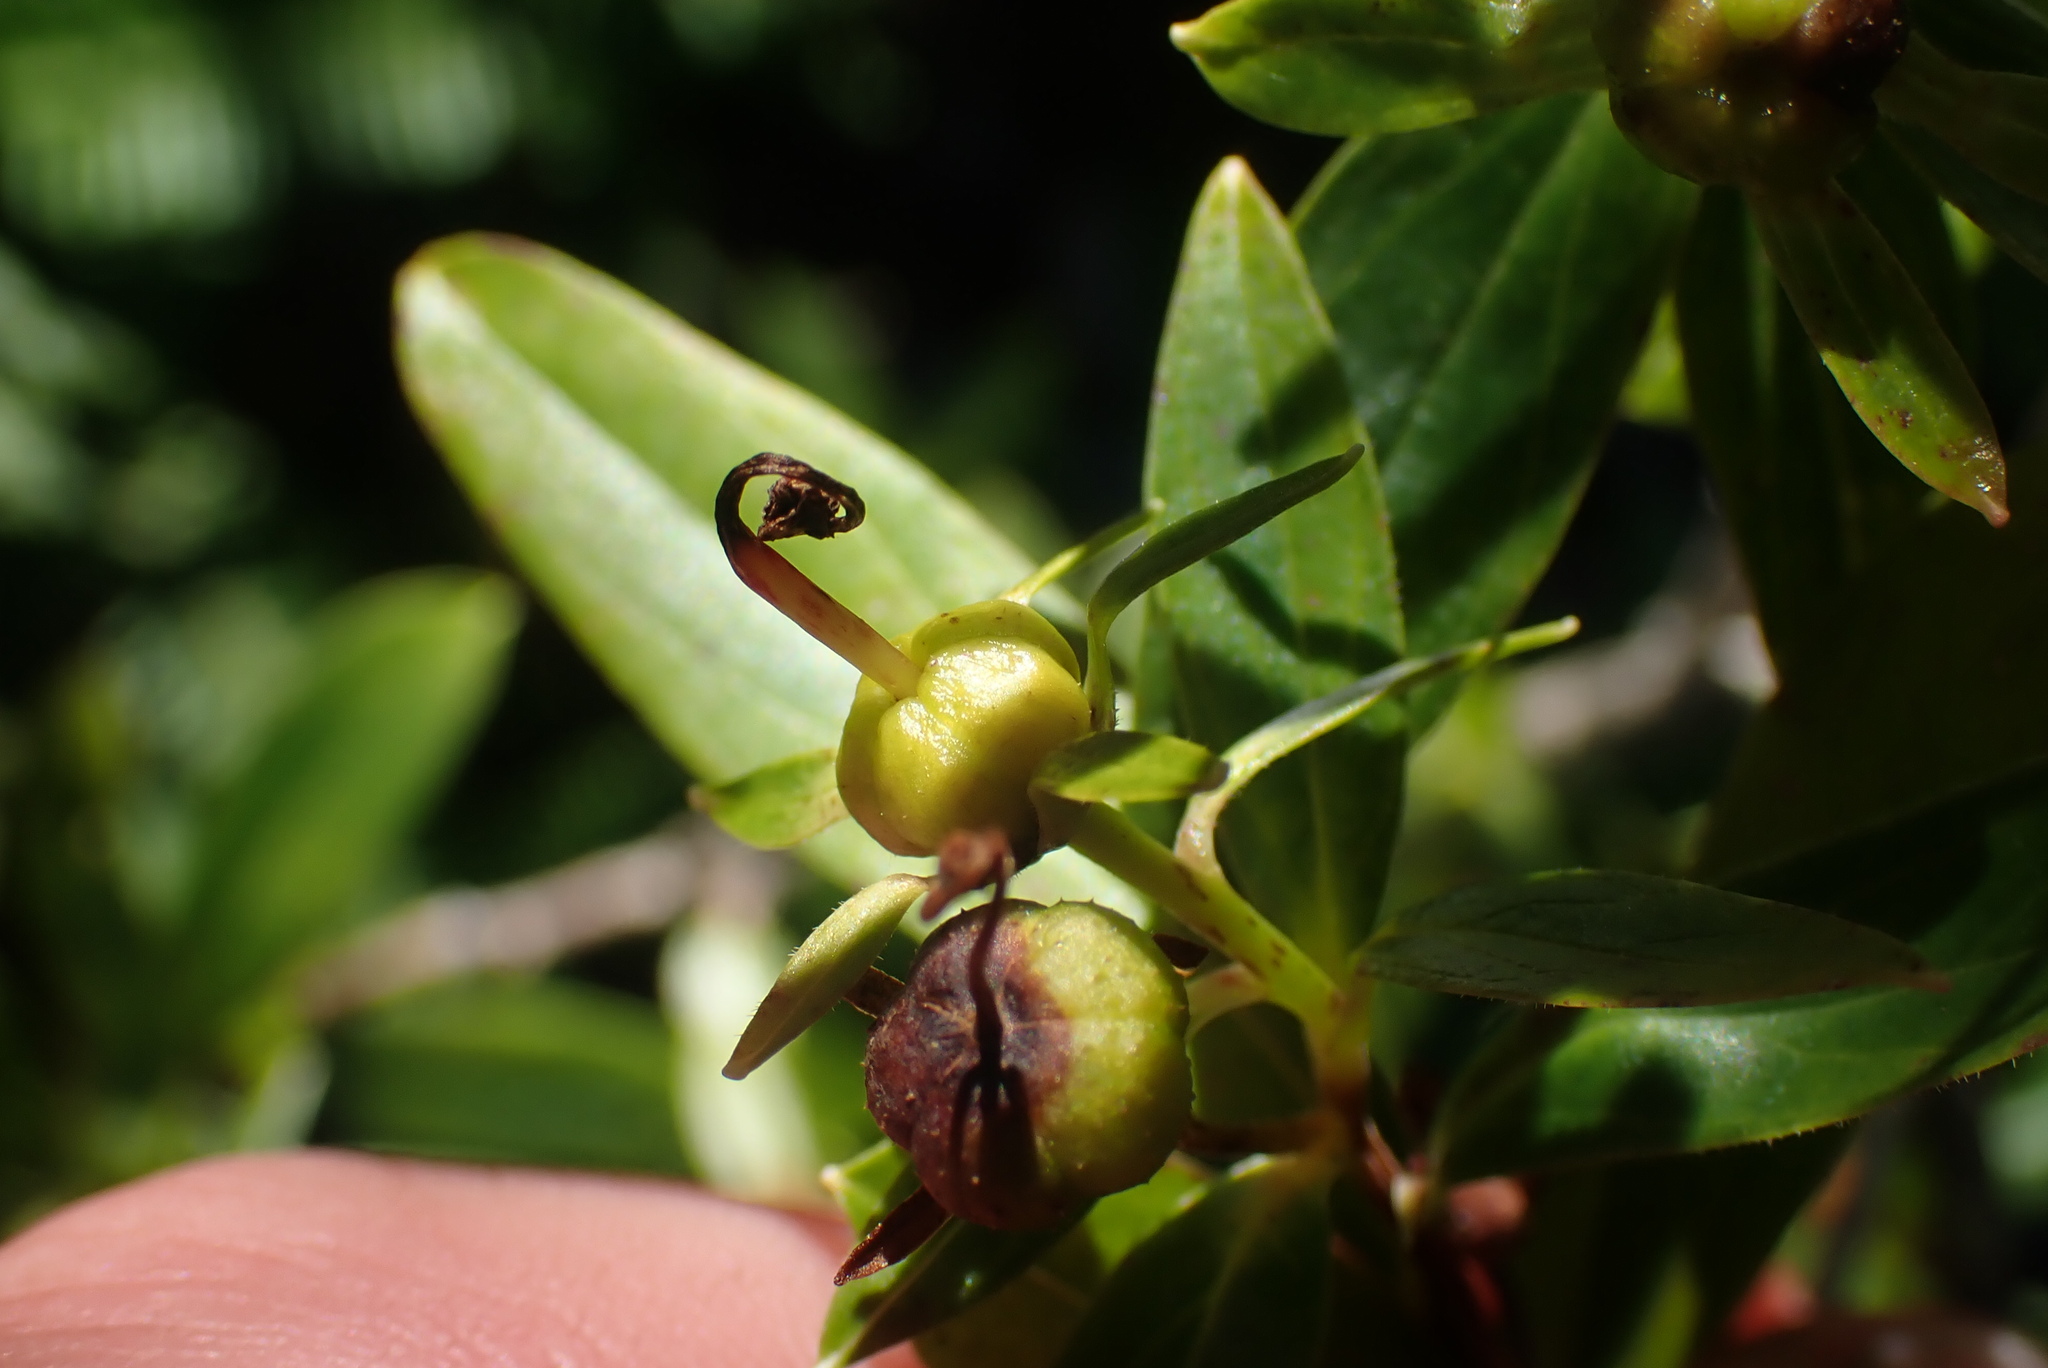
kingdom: Plantae
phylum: Tracheophyta
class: Magnoliopsida
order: Ericales
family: Ericaceae
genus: Elliottia
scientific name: Elliottia pyroliflora
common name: Copperbush
